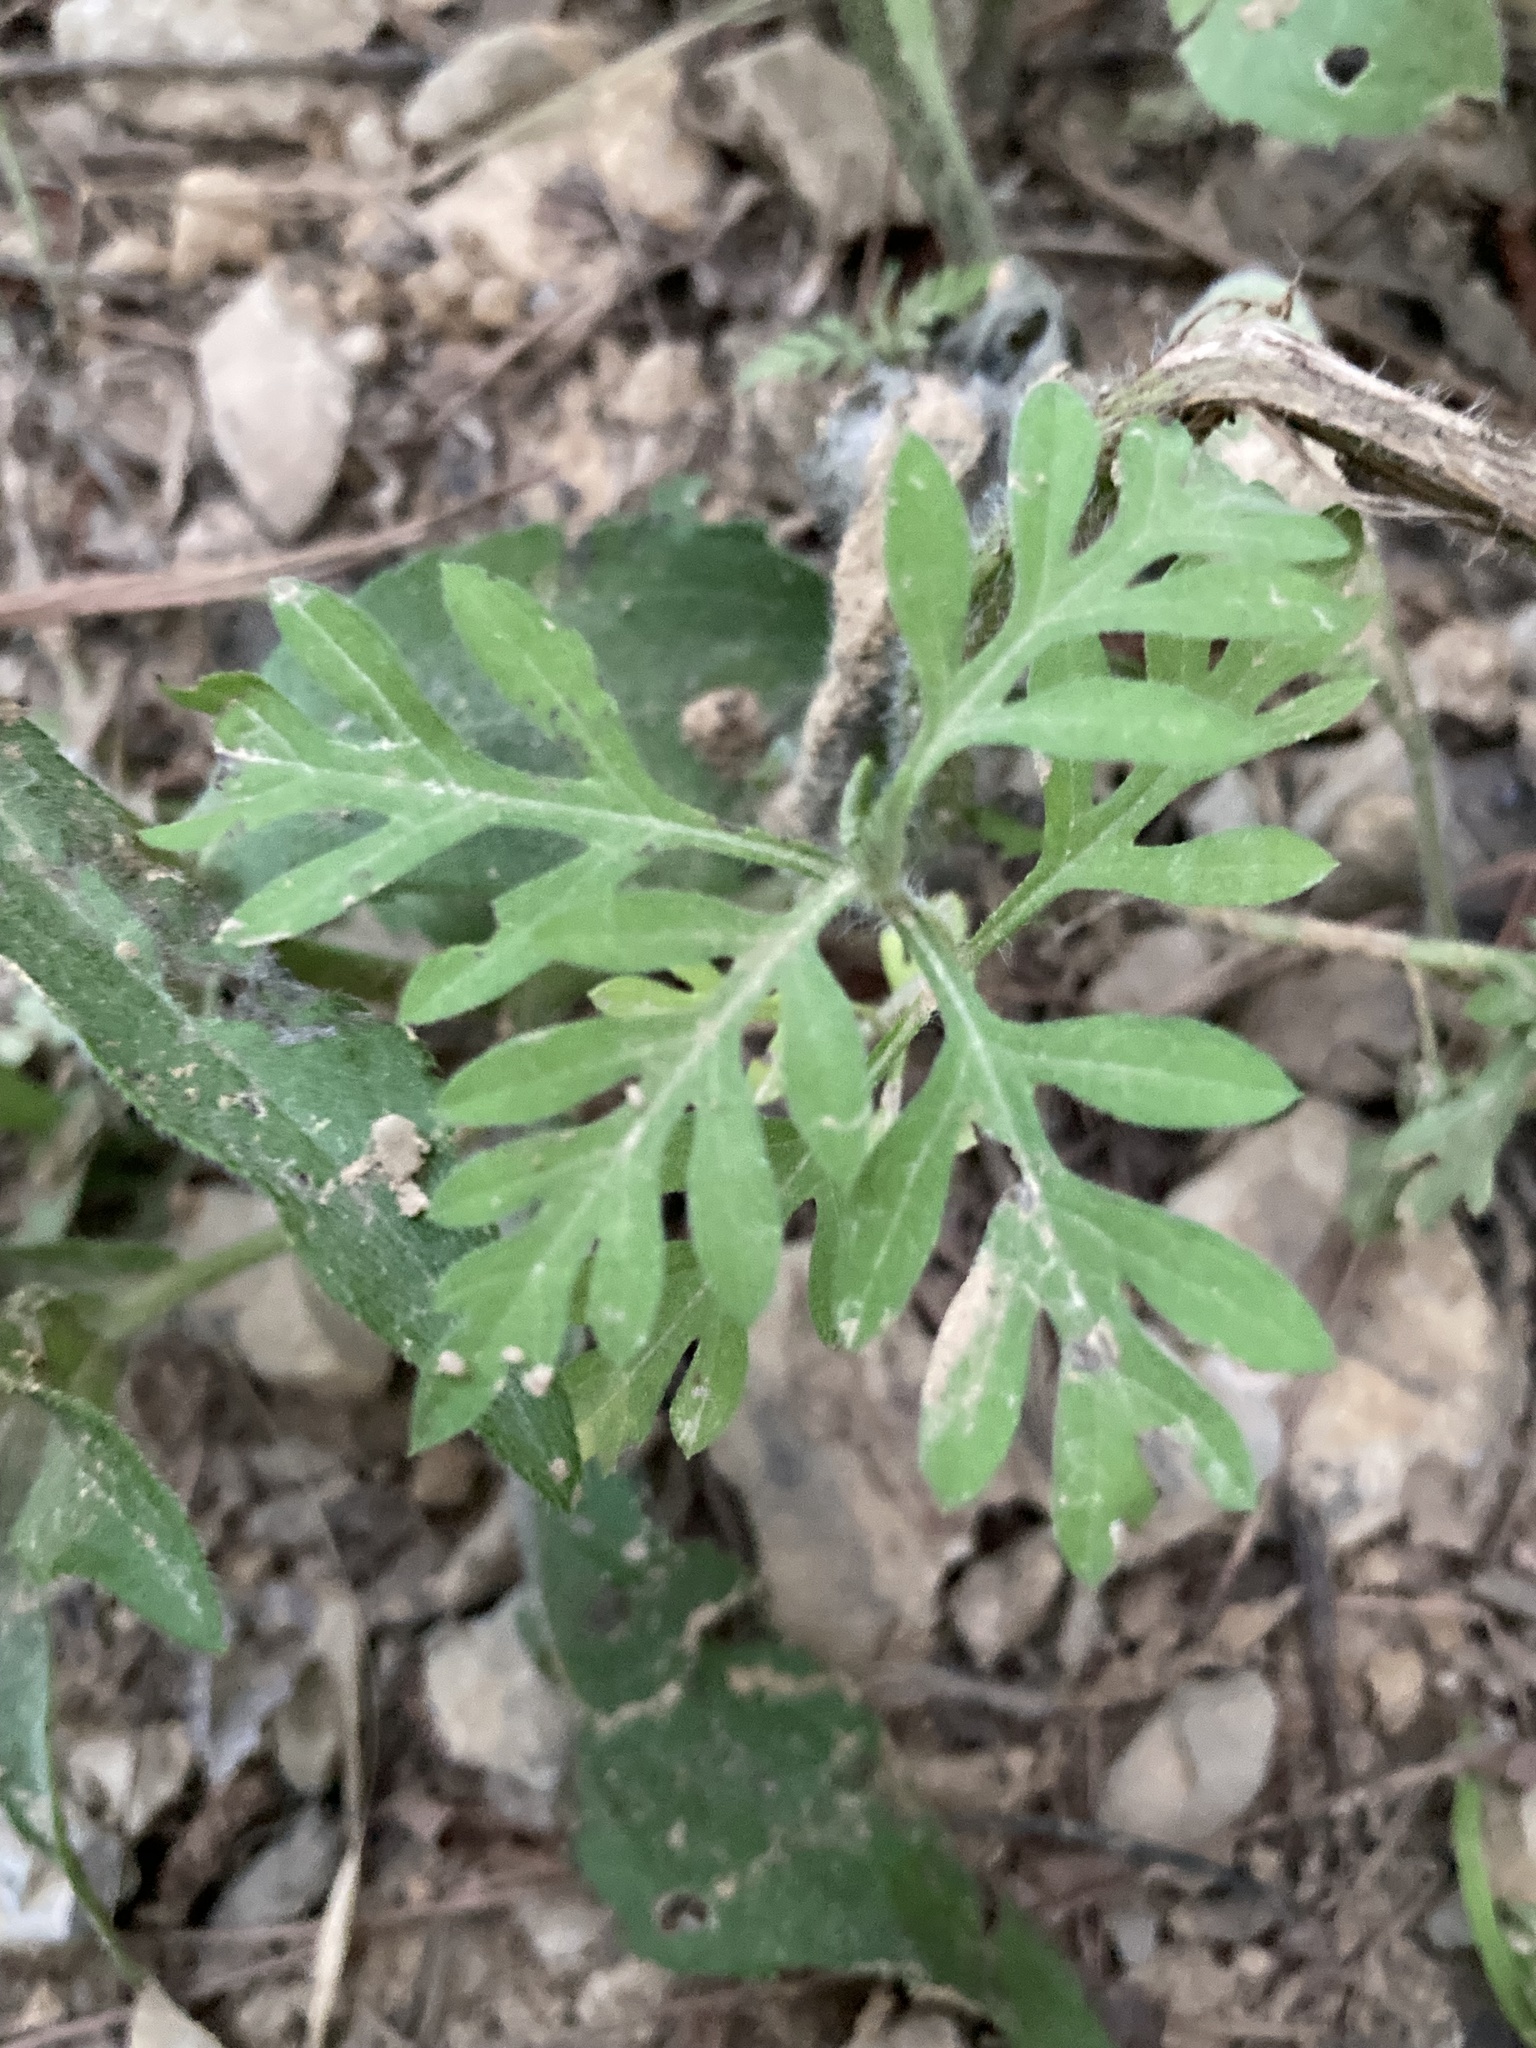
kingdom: Plantae
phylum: Tracheophyta
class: Magnoliopsida
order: Asterales
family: Asteraceae
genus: Ambrosia
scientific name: Ambrosia artemisiifolia
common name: Annual ragweed
